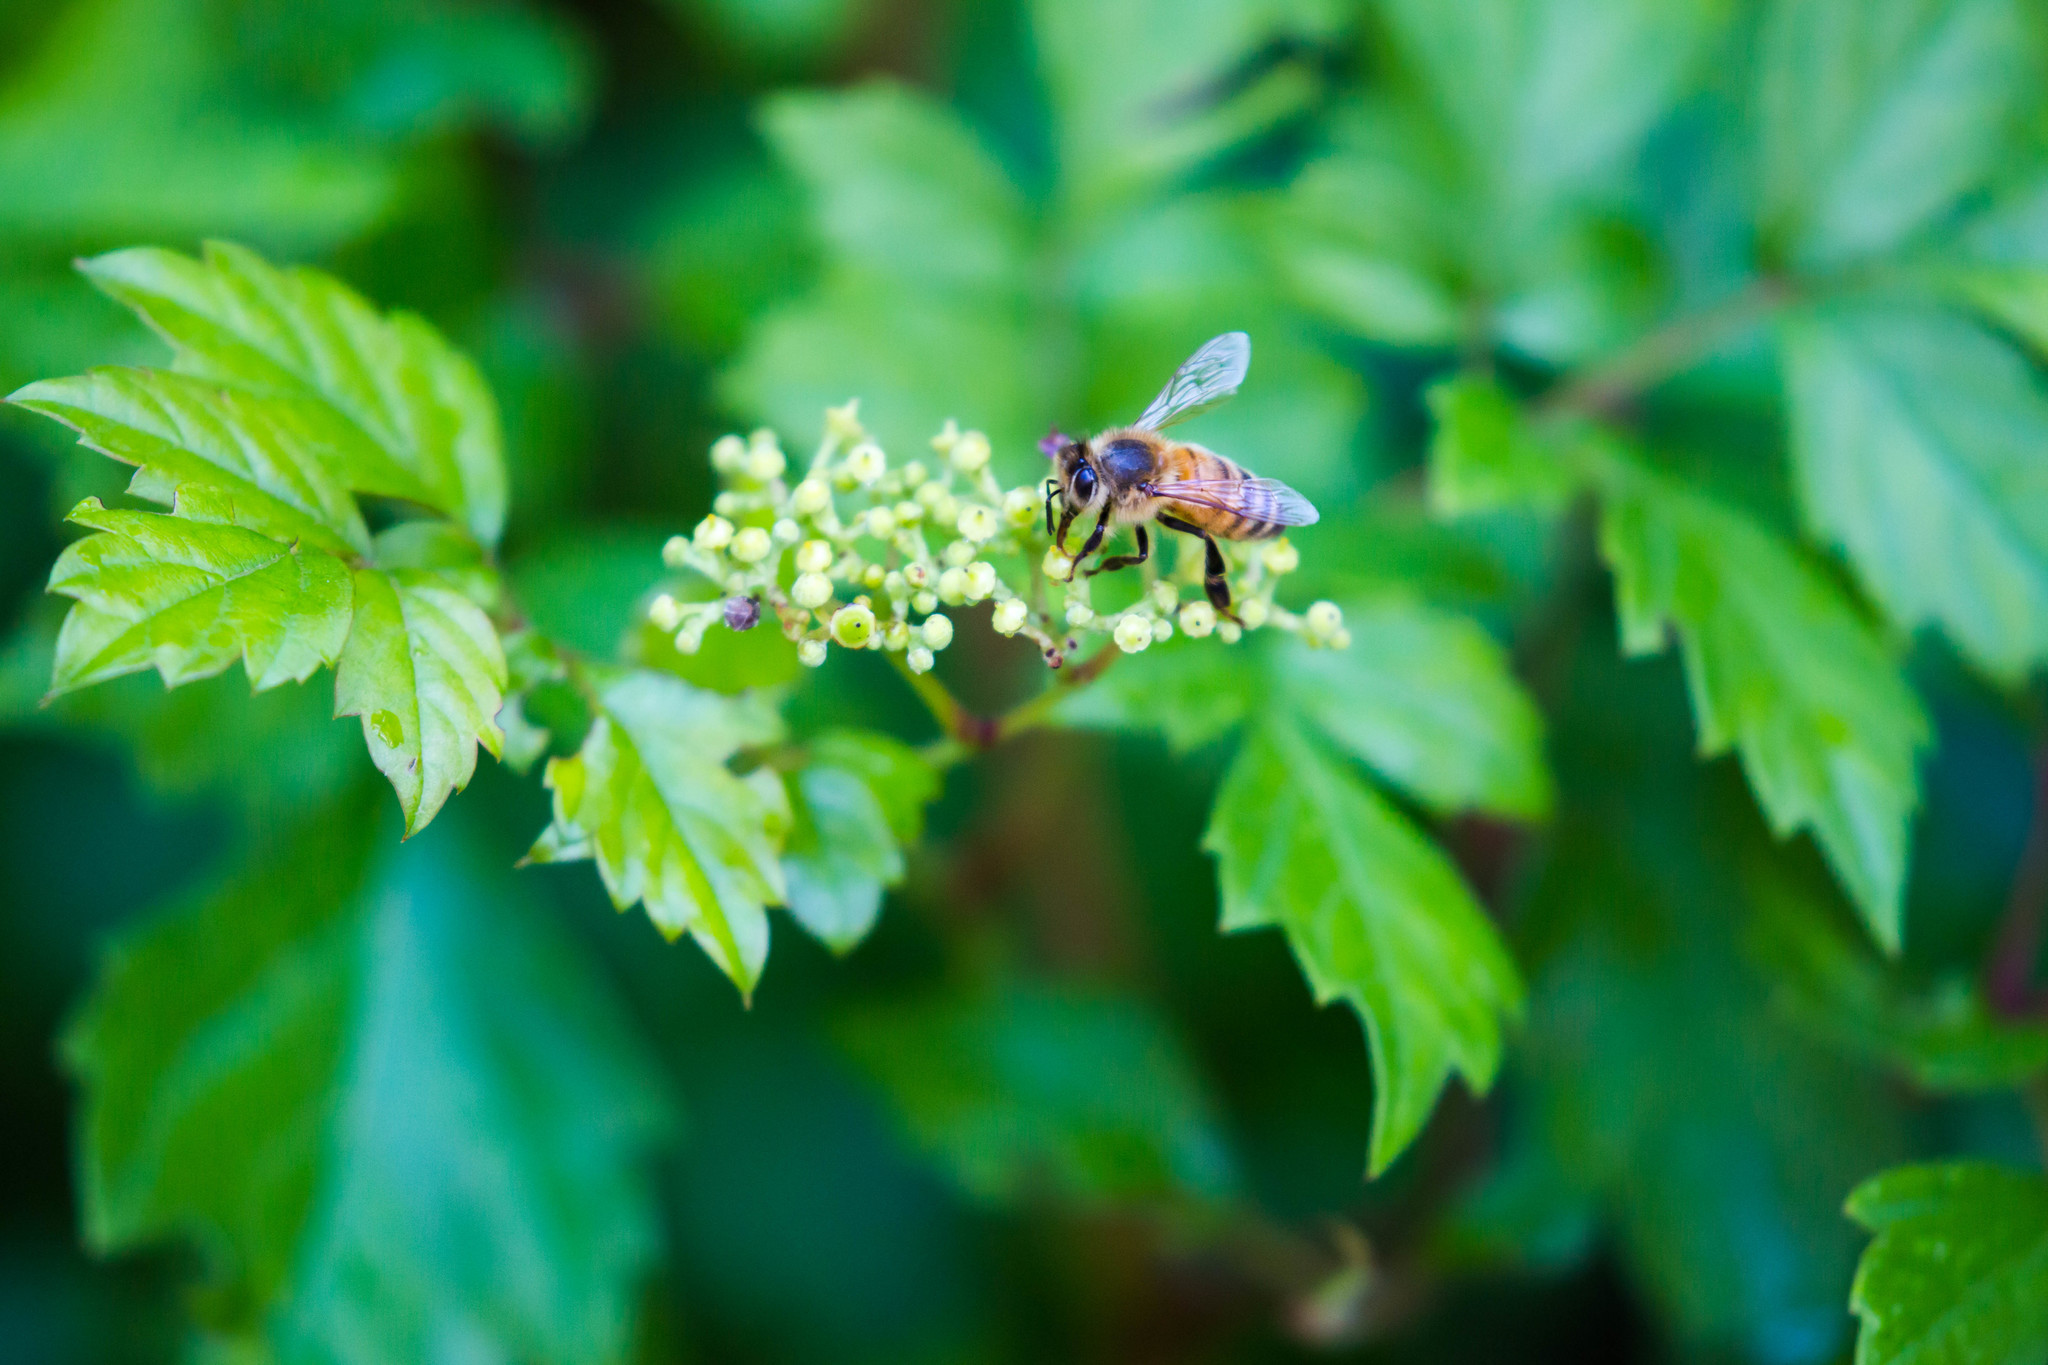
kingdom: Animalia
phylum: Arthropoda
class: Insecta
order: Hymenoptera
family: Apidae
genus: Apis
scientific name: Apis mellifera
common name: Honey bee
